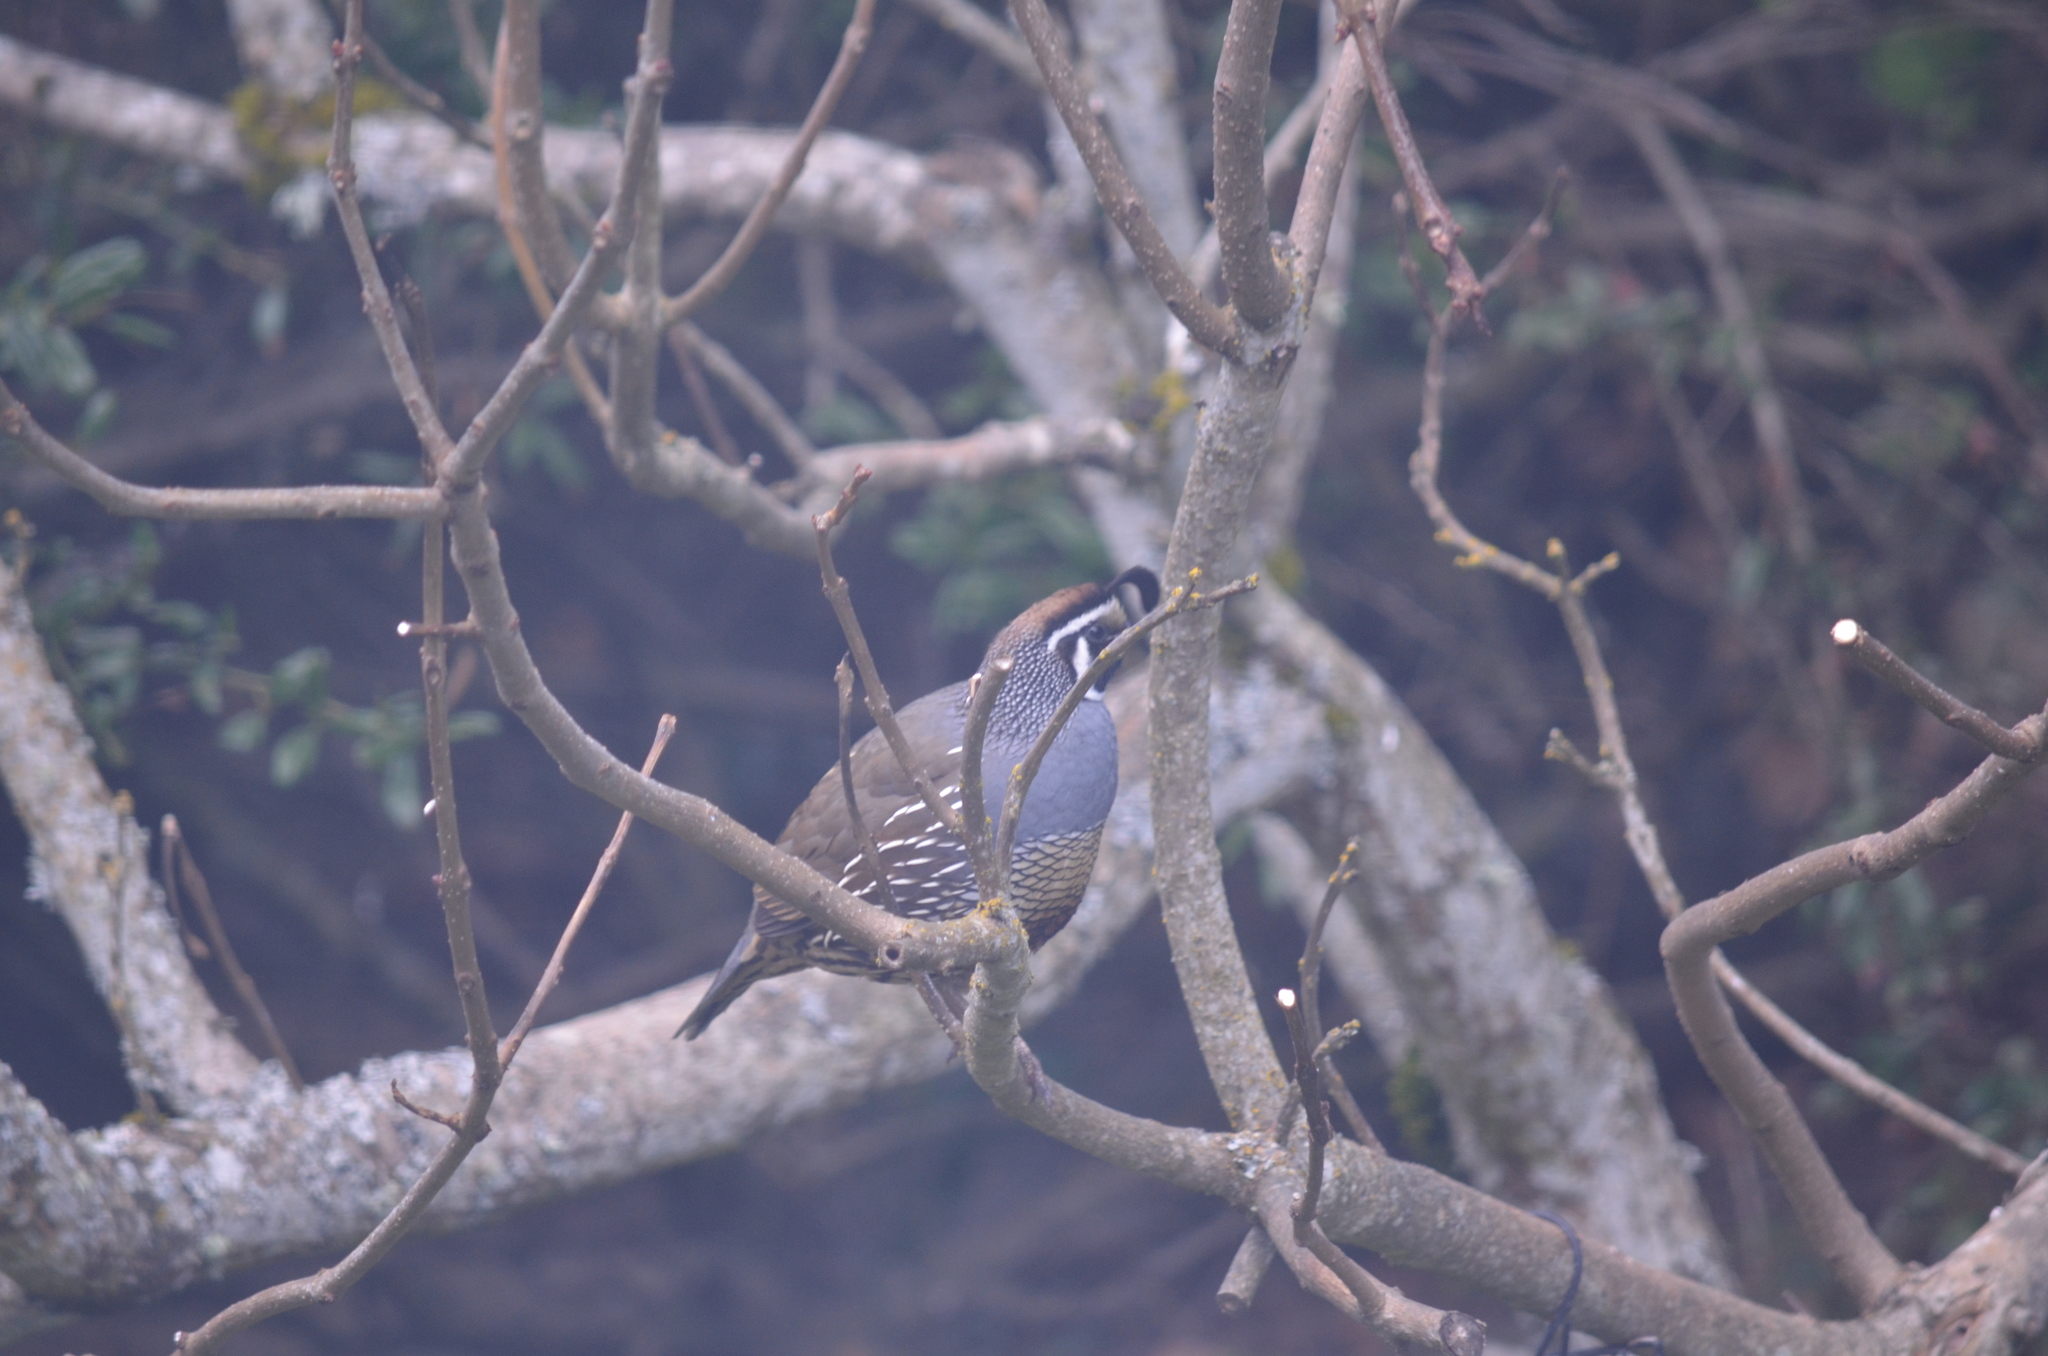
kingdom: Animalia
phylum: Chordata
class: Aves
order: Galliformes
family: Odontophoridae
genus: Callipepla
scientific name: Callipepla californica
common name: California quail
